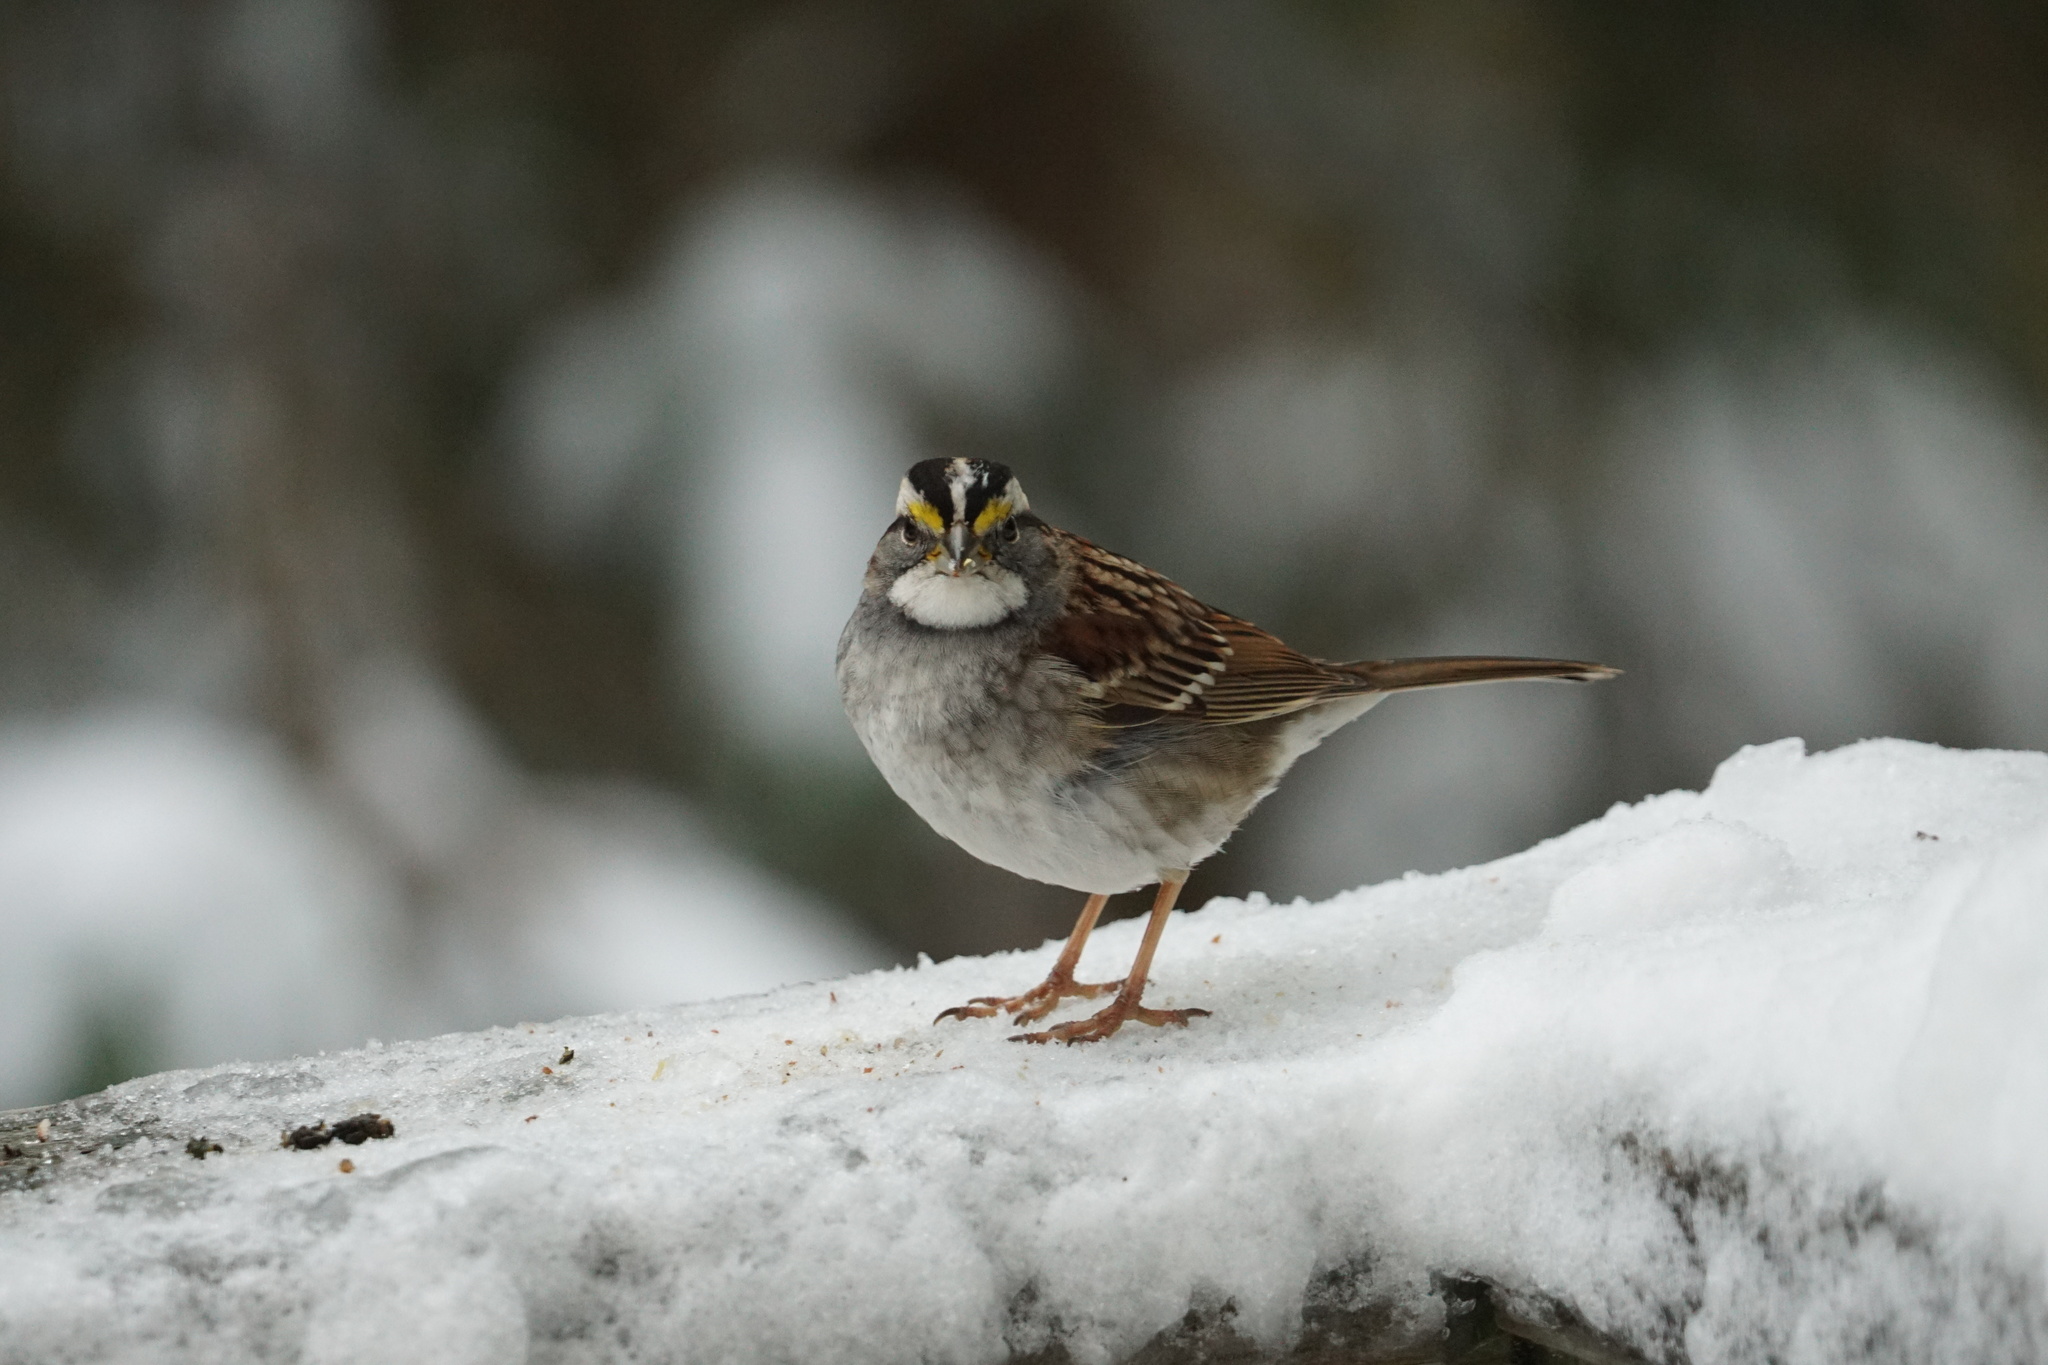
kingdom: Animalia
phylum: Chordata
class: Aves
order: Passeriformes
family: Passerellidae
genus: Zonotrichia
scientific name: Zonotrichia albicollis
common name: White-throated sparrow
